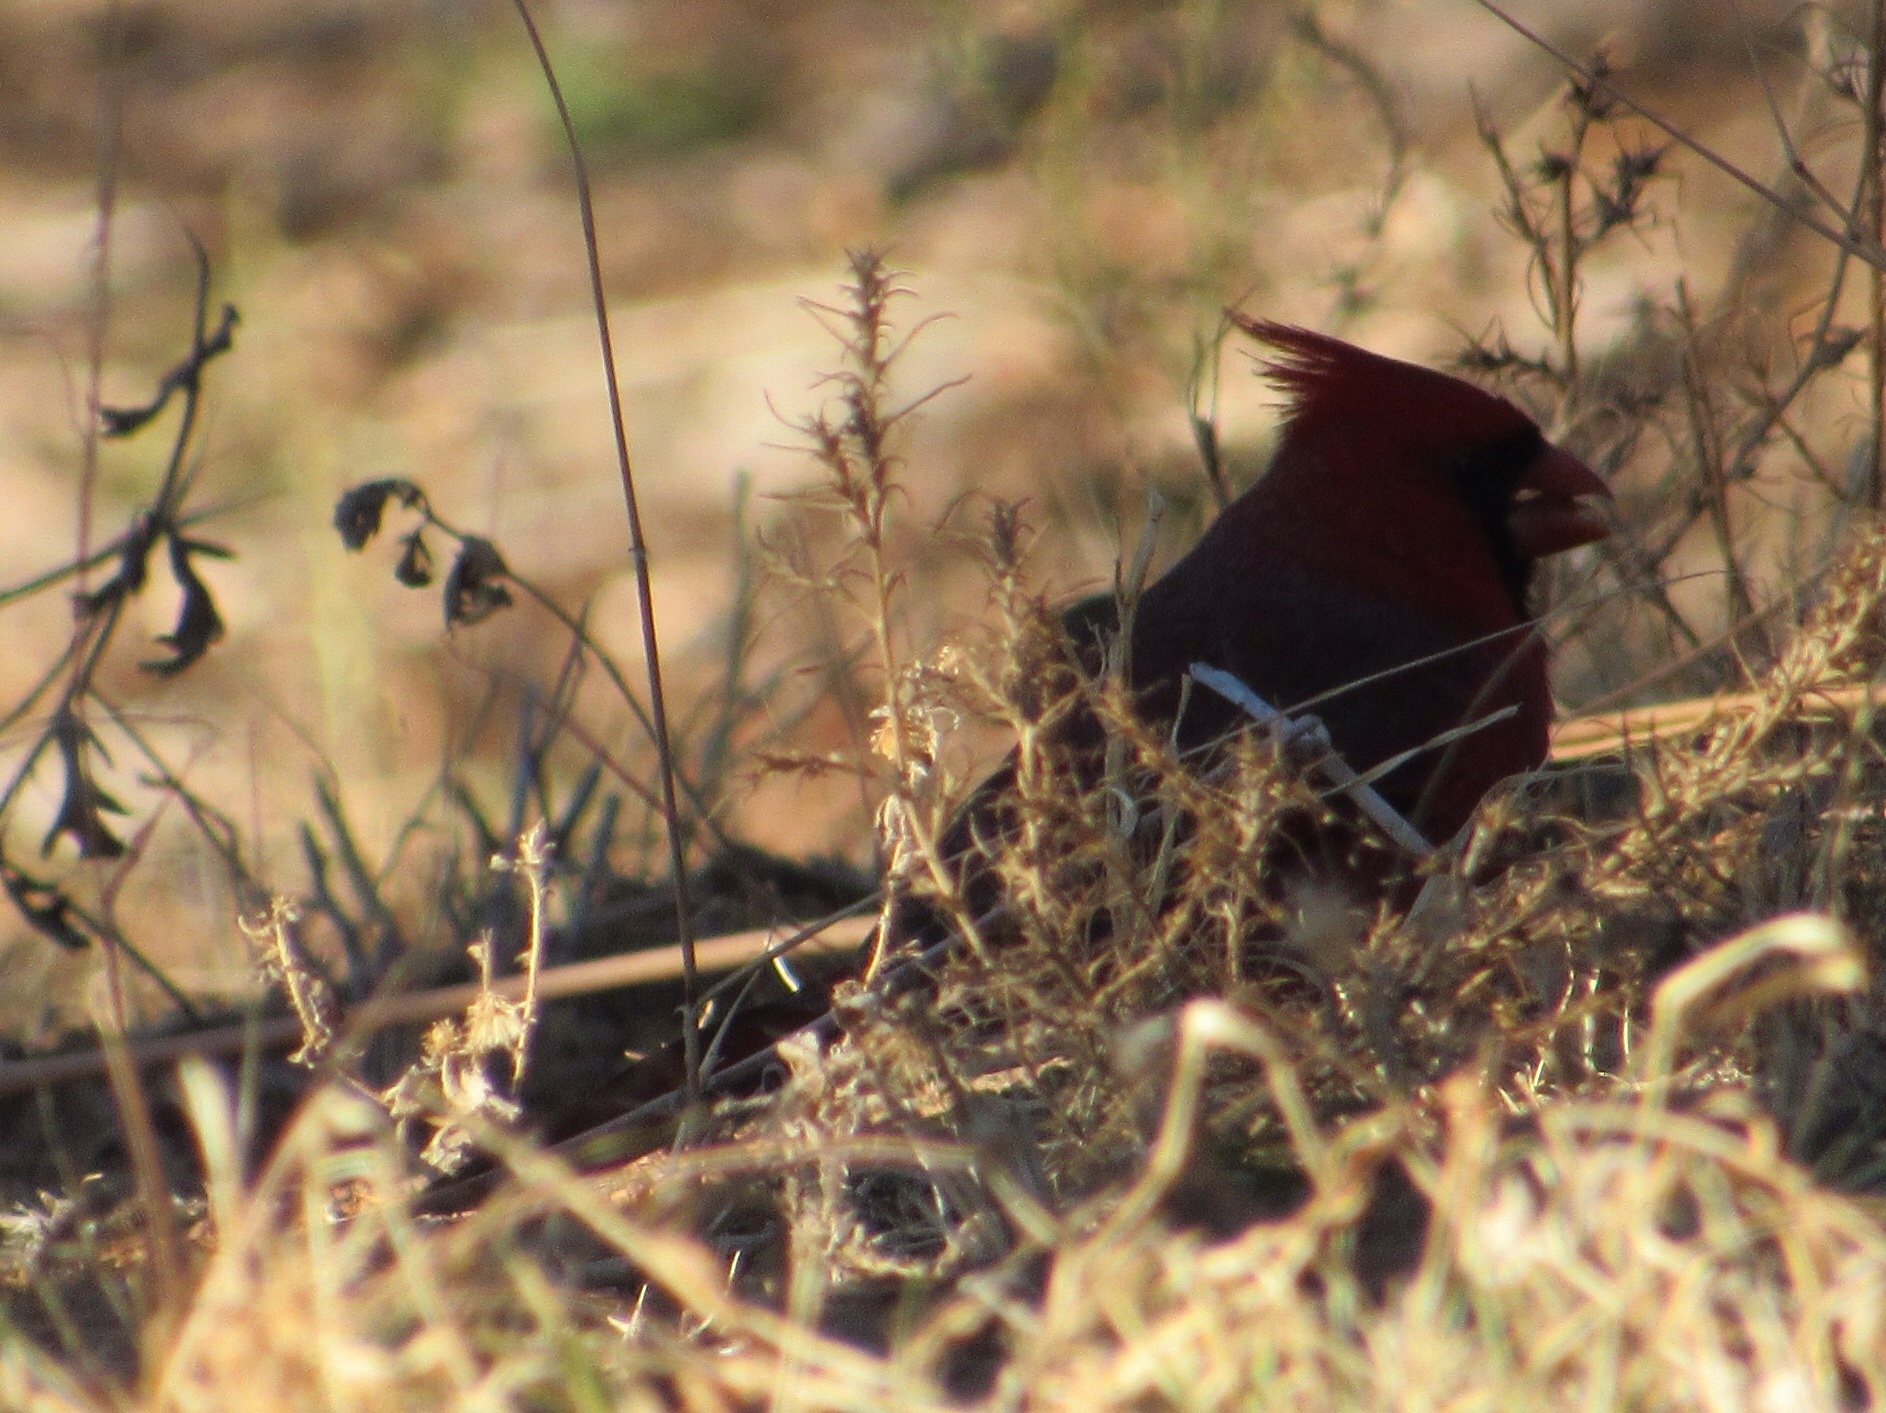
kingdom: Animalia
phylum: Chordata
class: Aves
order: Passeriformes
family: Cardinalidae
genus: Cardinalis
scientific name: Cardinalis cardinalis
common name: Northern cardinal
